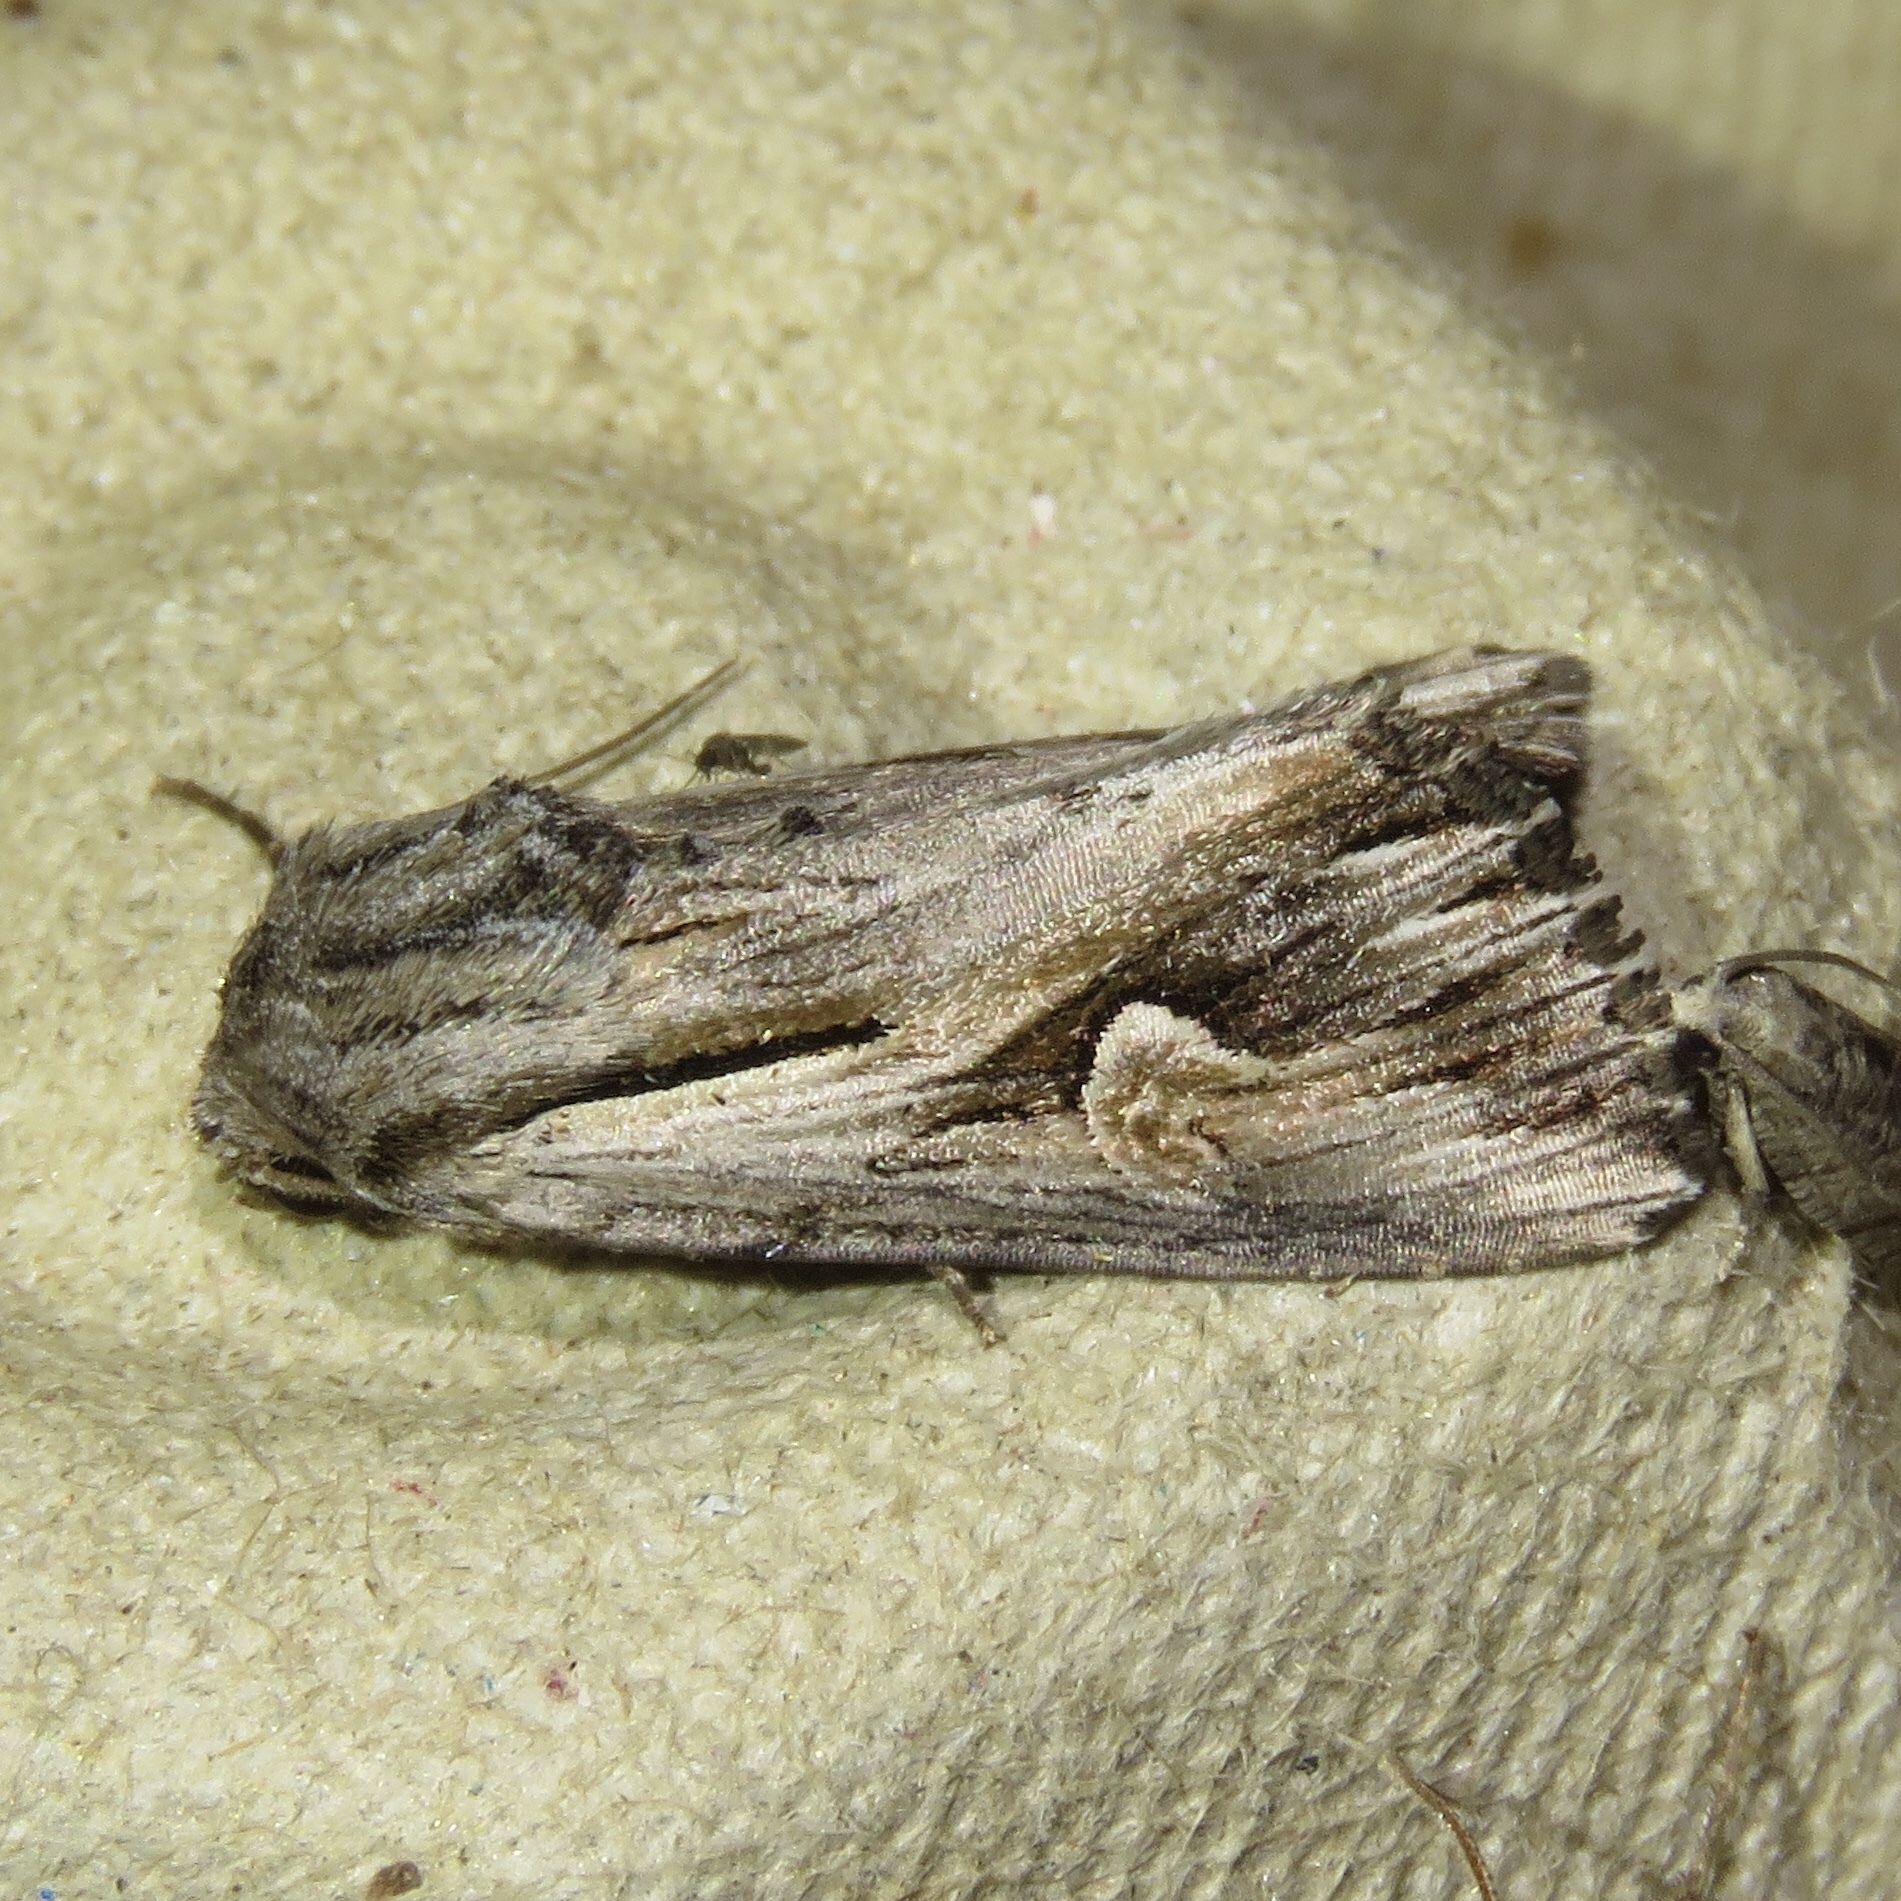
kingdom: Animalia
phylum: Arthropoda
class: Insecta
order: Lepidoptera
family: Noctuidae
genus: Nedra
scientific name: Nedra ramosula
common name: Gray half-spot
